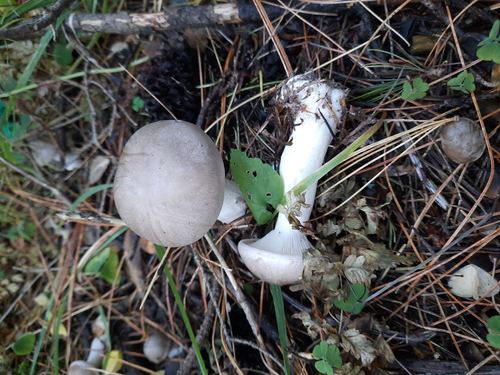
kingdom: Fungi
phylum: Basidiomycota
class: Agaricomycetes
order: Agaricales
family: Tricholomataceae
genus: Clitocybe
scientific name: Clitocybe nebularis
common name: Clouded agaric
